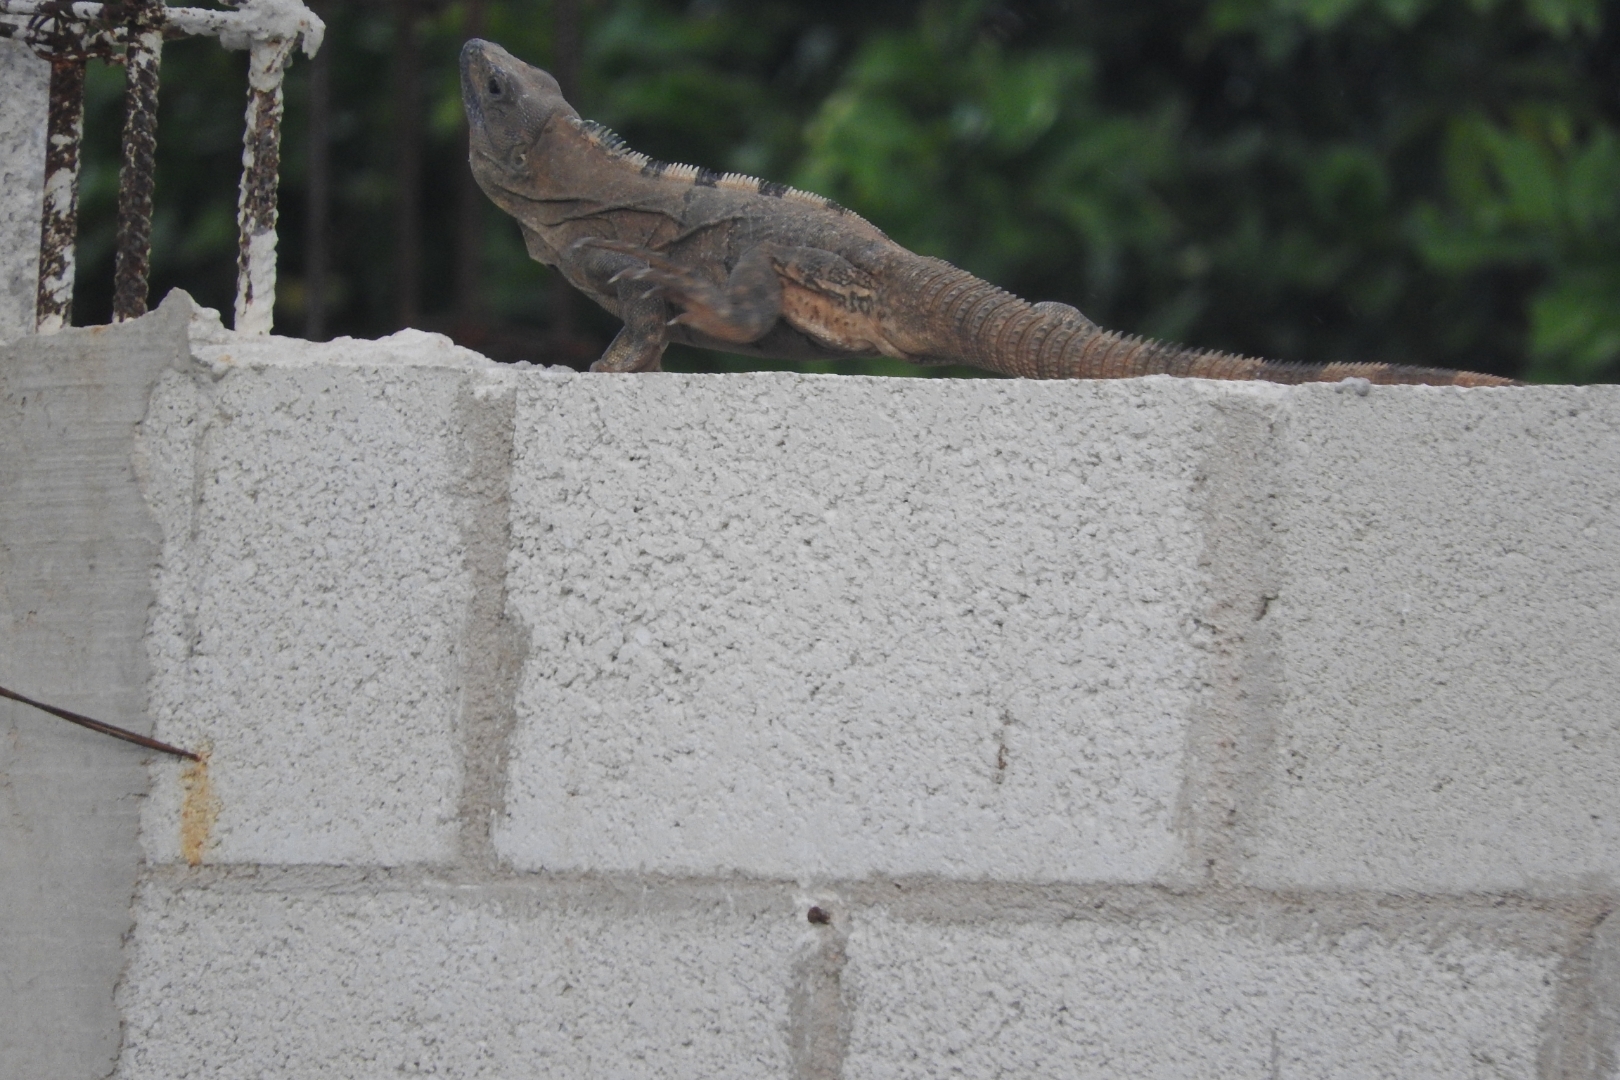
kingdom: Animalia
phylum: Chordata
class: Squamata
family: Iguanidae
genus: Ctenosaura
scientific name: Ctenosaura similis
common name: Black spiny-tailed iguana
